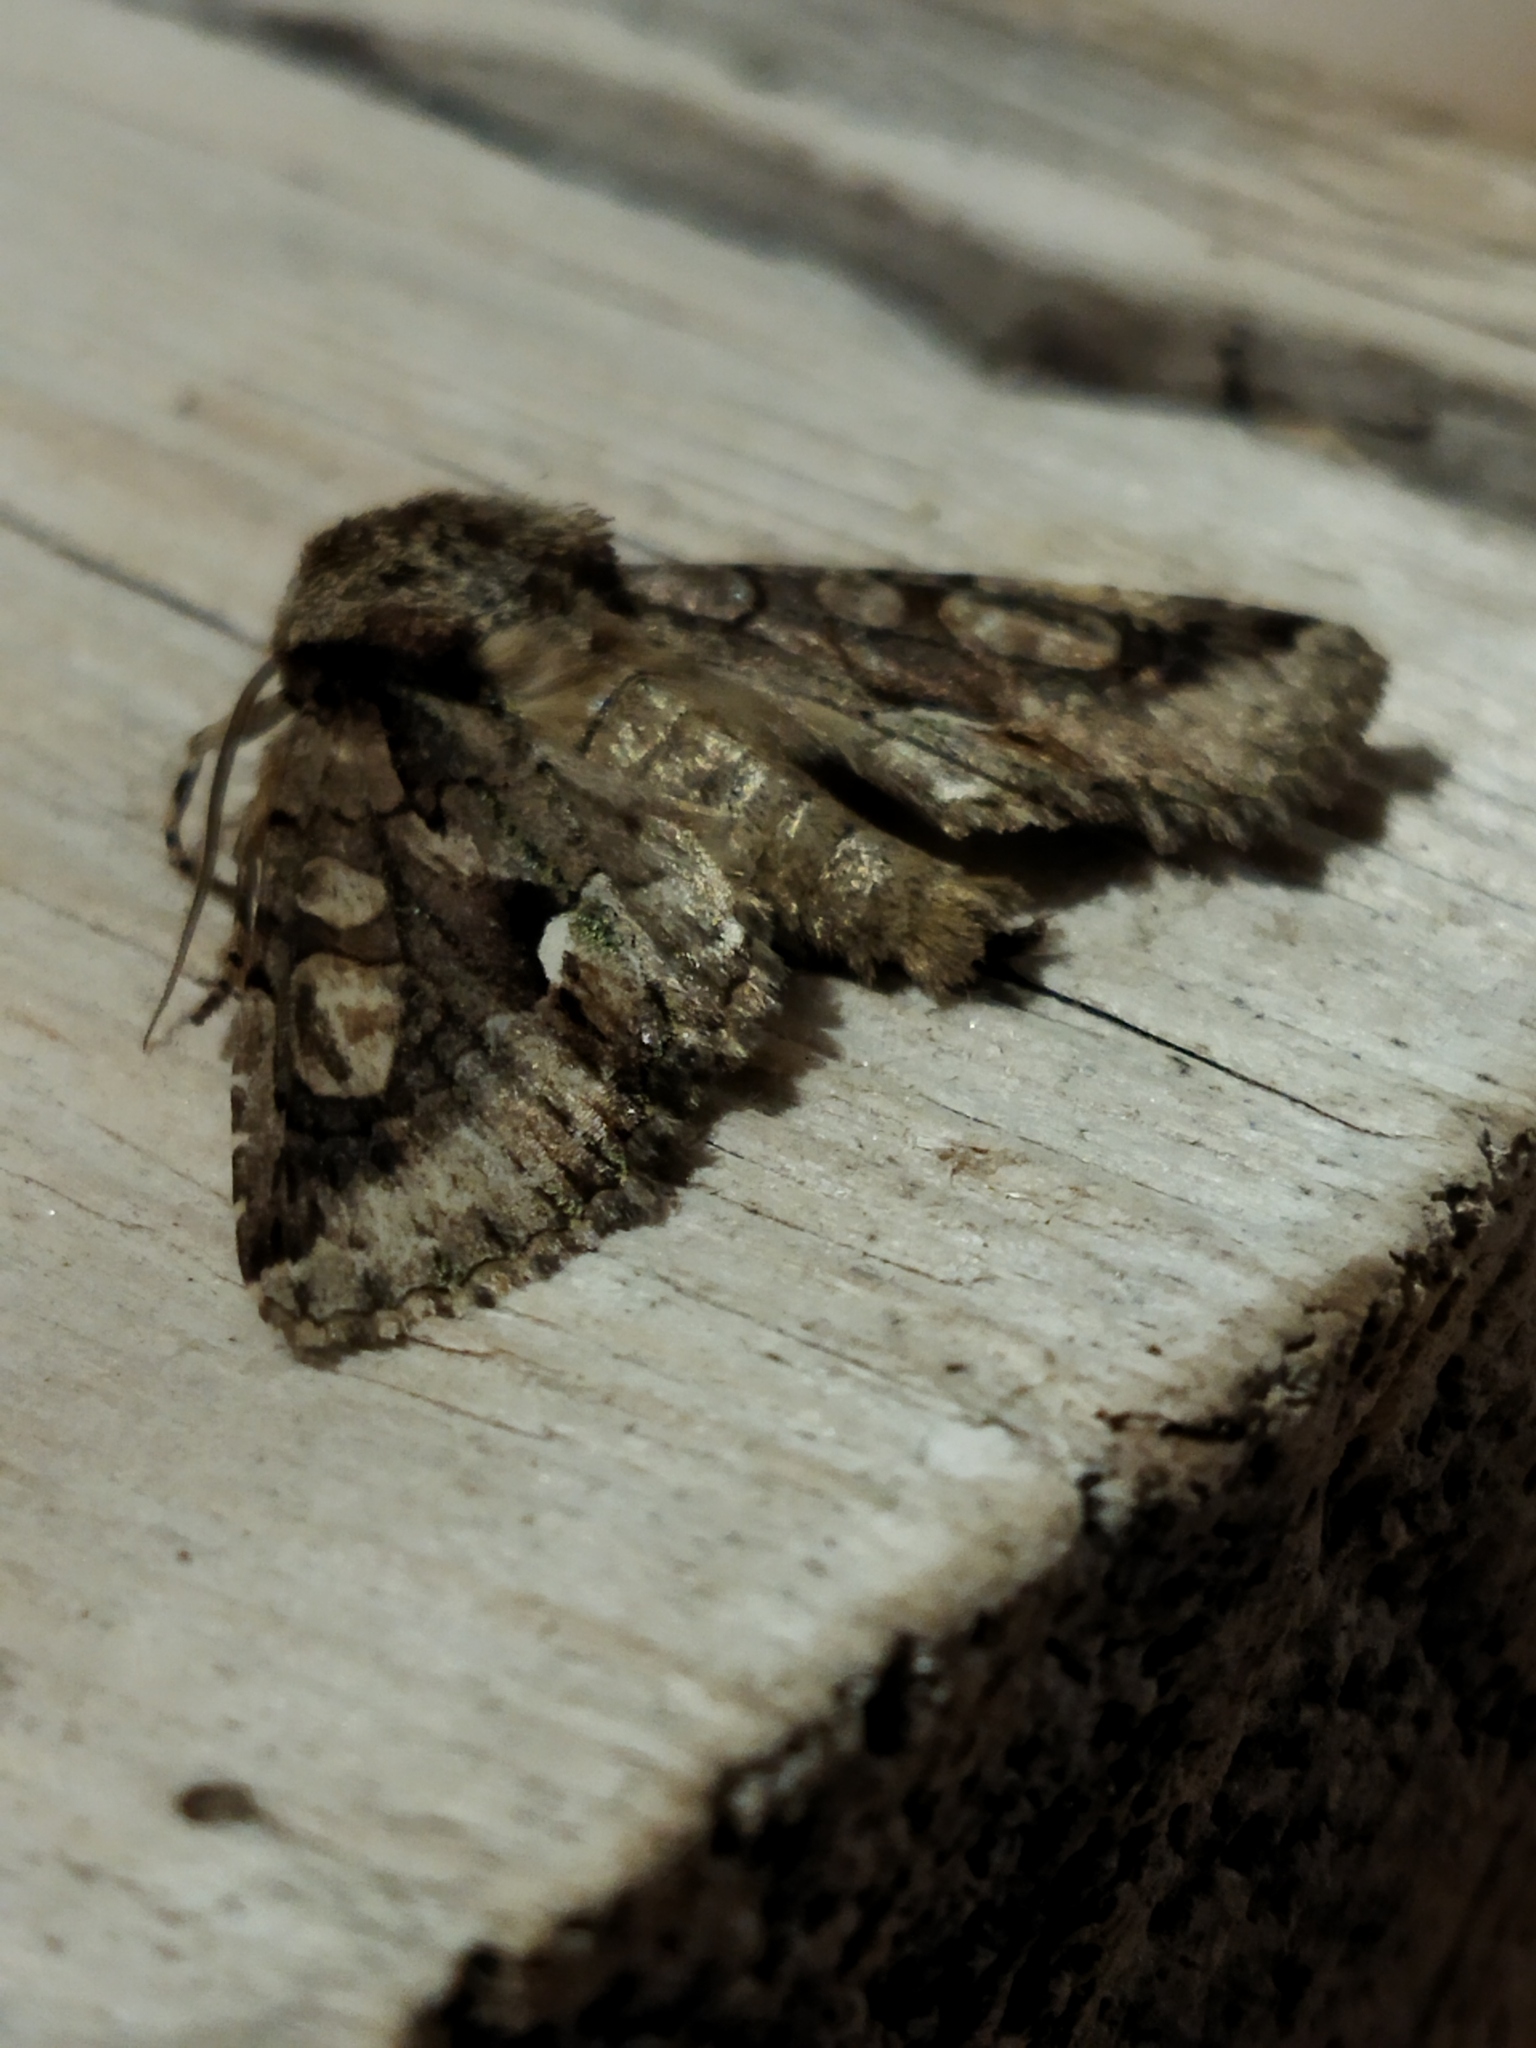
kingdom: Animalia
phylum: Arthropoda
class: Insecta
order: Lepidoptera
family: Noctuidae
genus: Allophyes
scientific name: Allophyes oxyacanthae
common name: Green-brindled crescent
